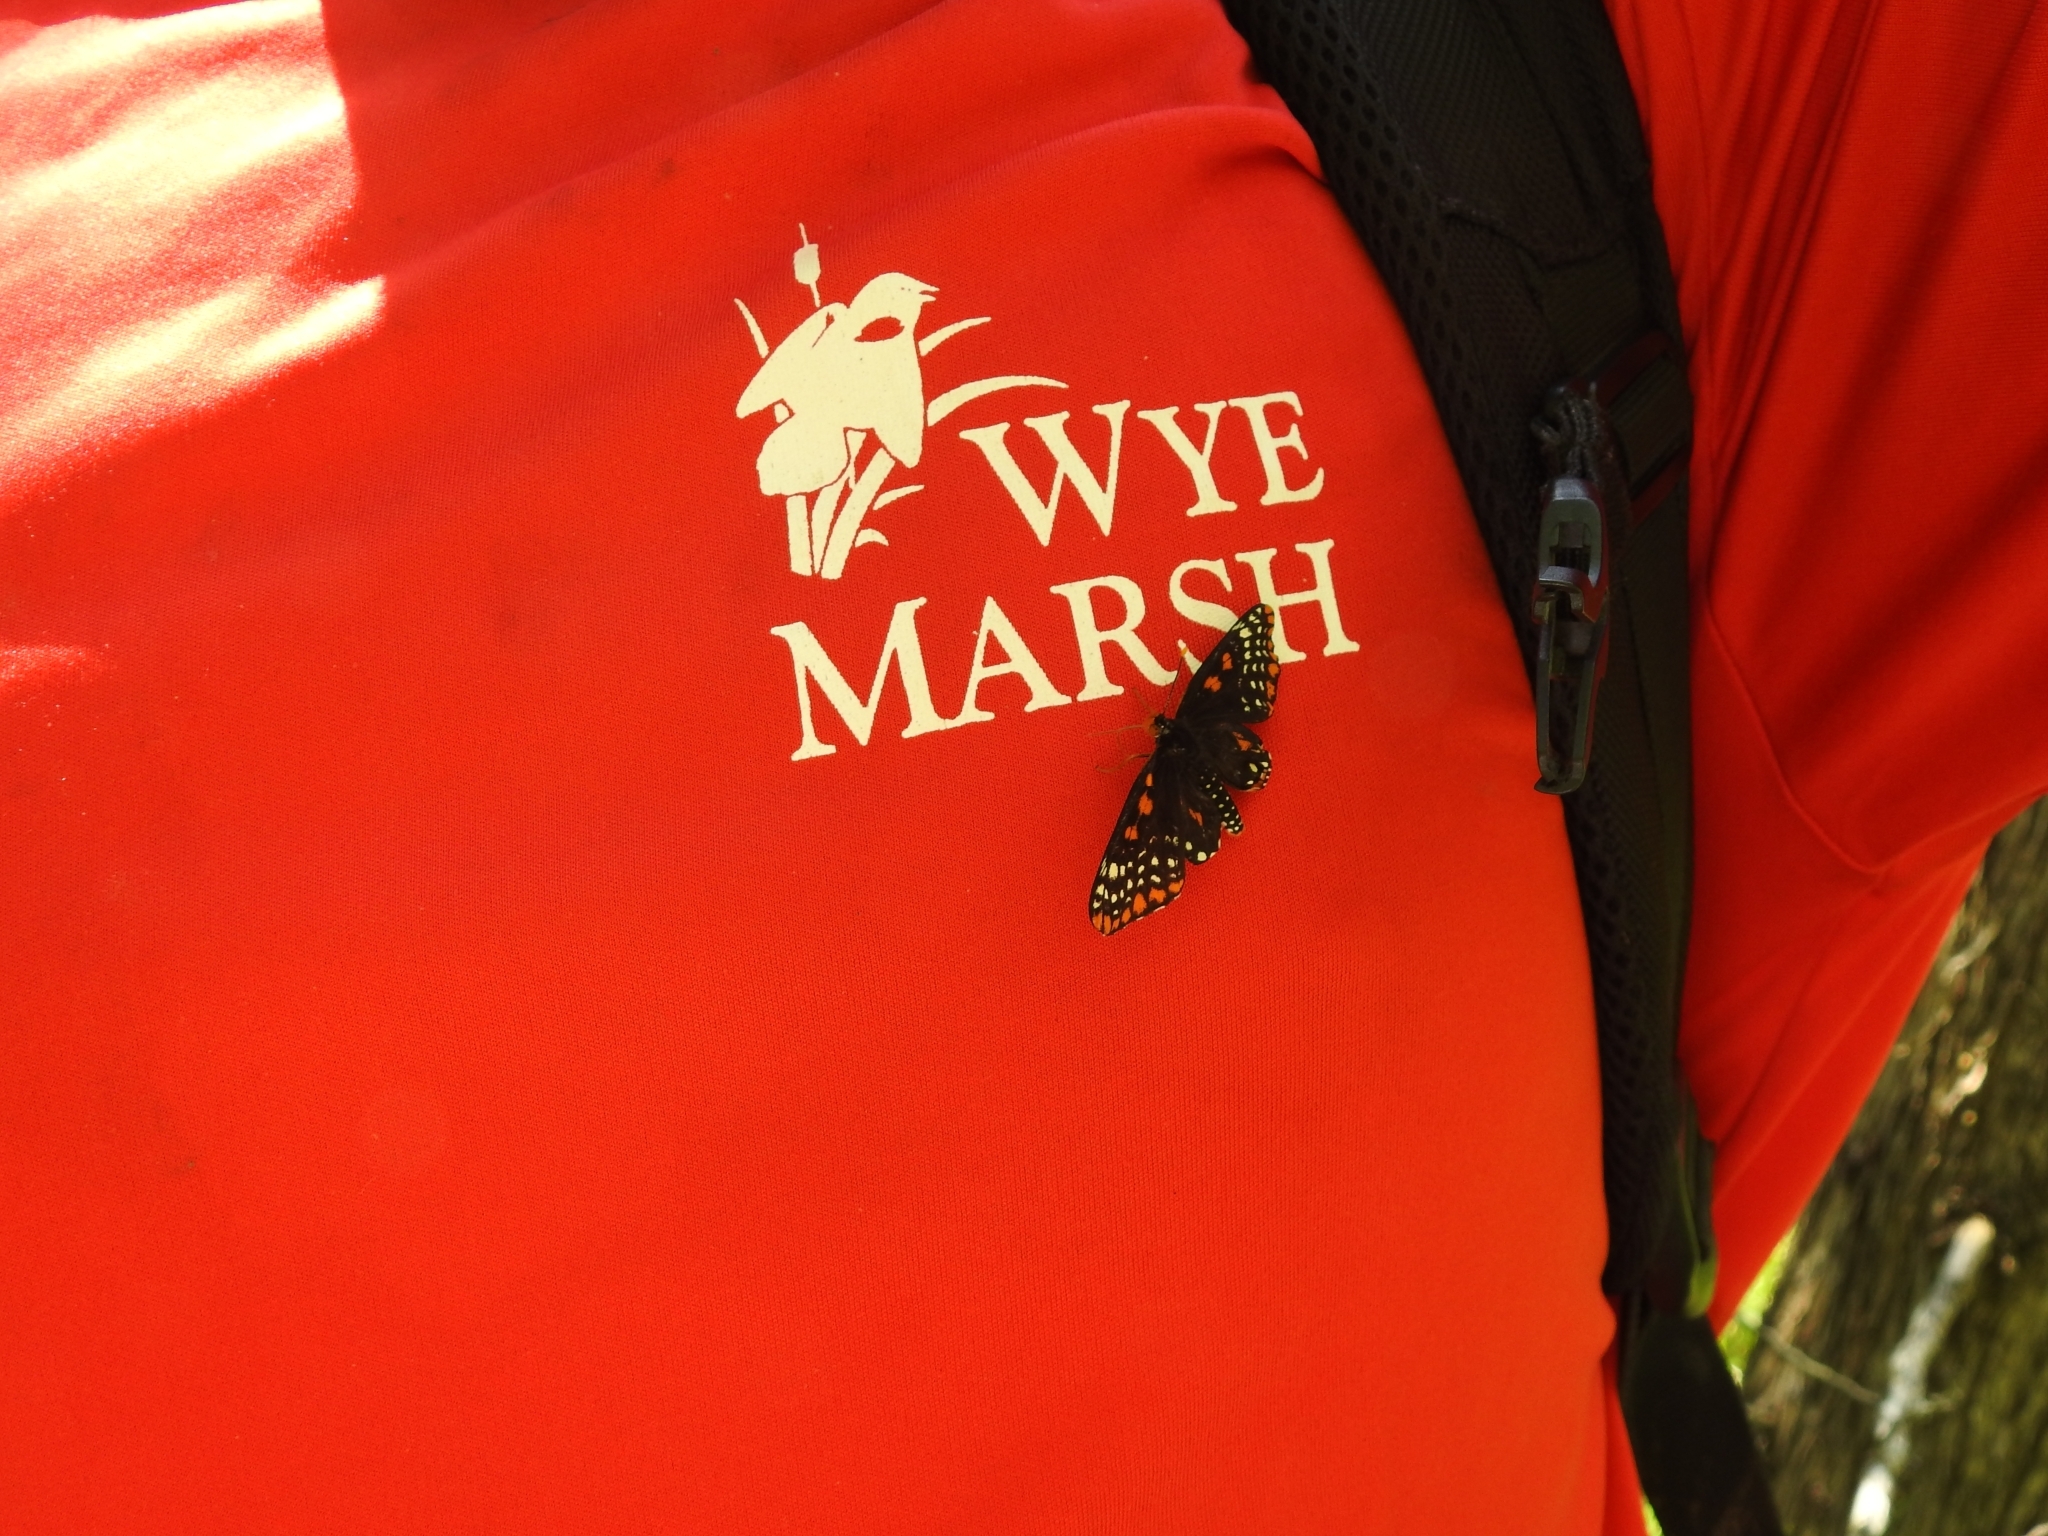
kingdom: Animalia
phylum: Arthropoda
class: Insecta
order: Lepidoptera
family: Nymphalidae
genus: Euphydryas
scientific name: Euphydryas phaeton
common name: Baltimore checkerspot
